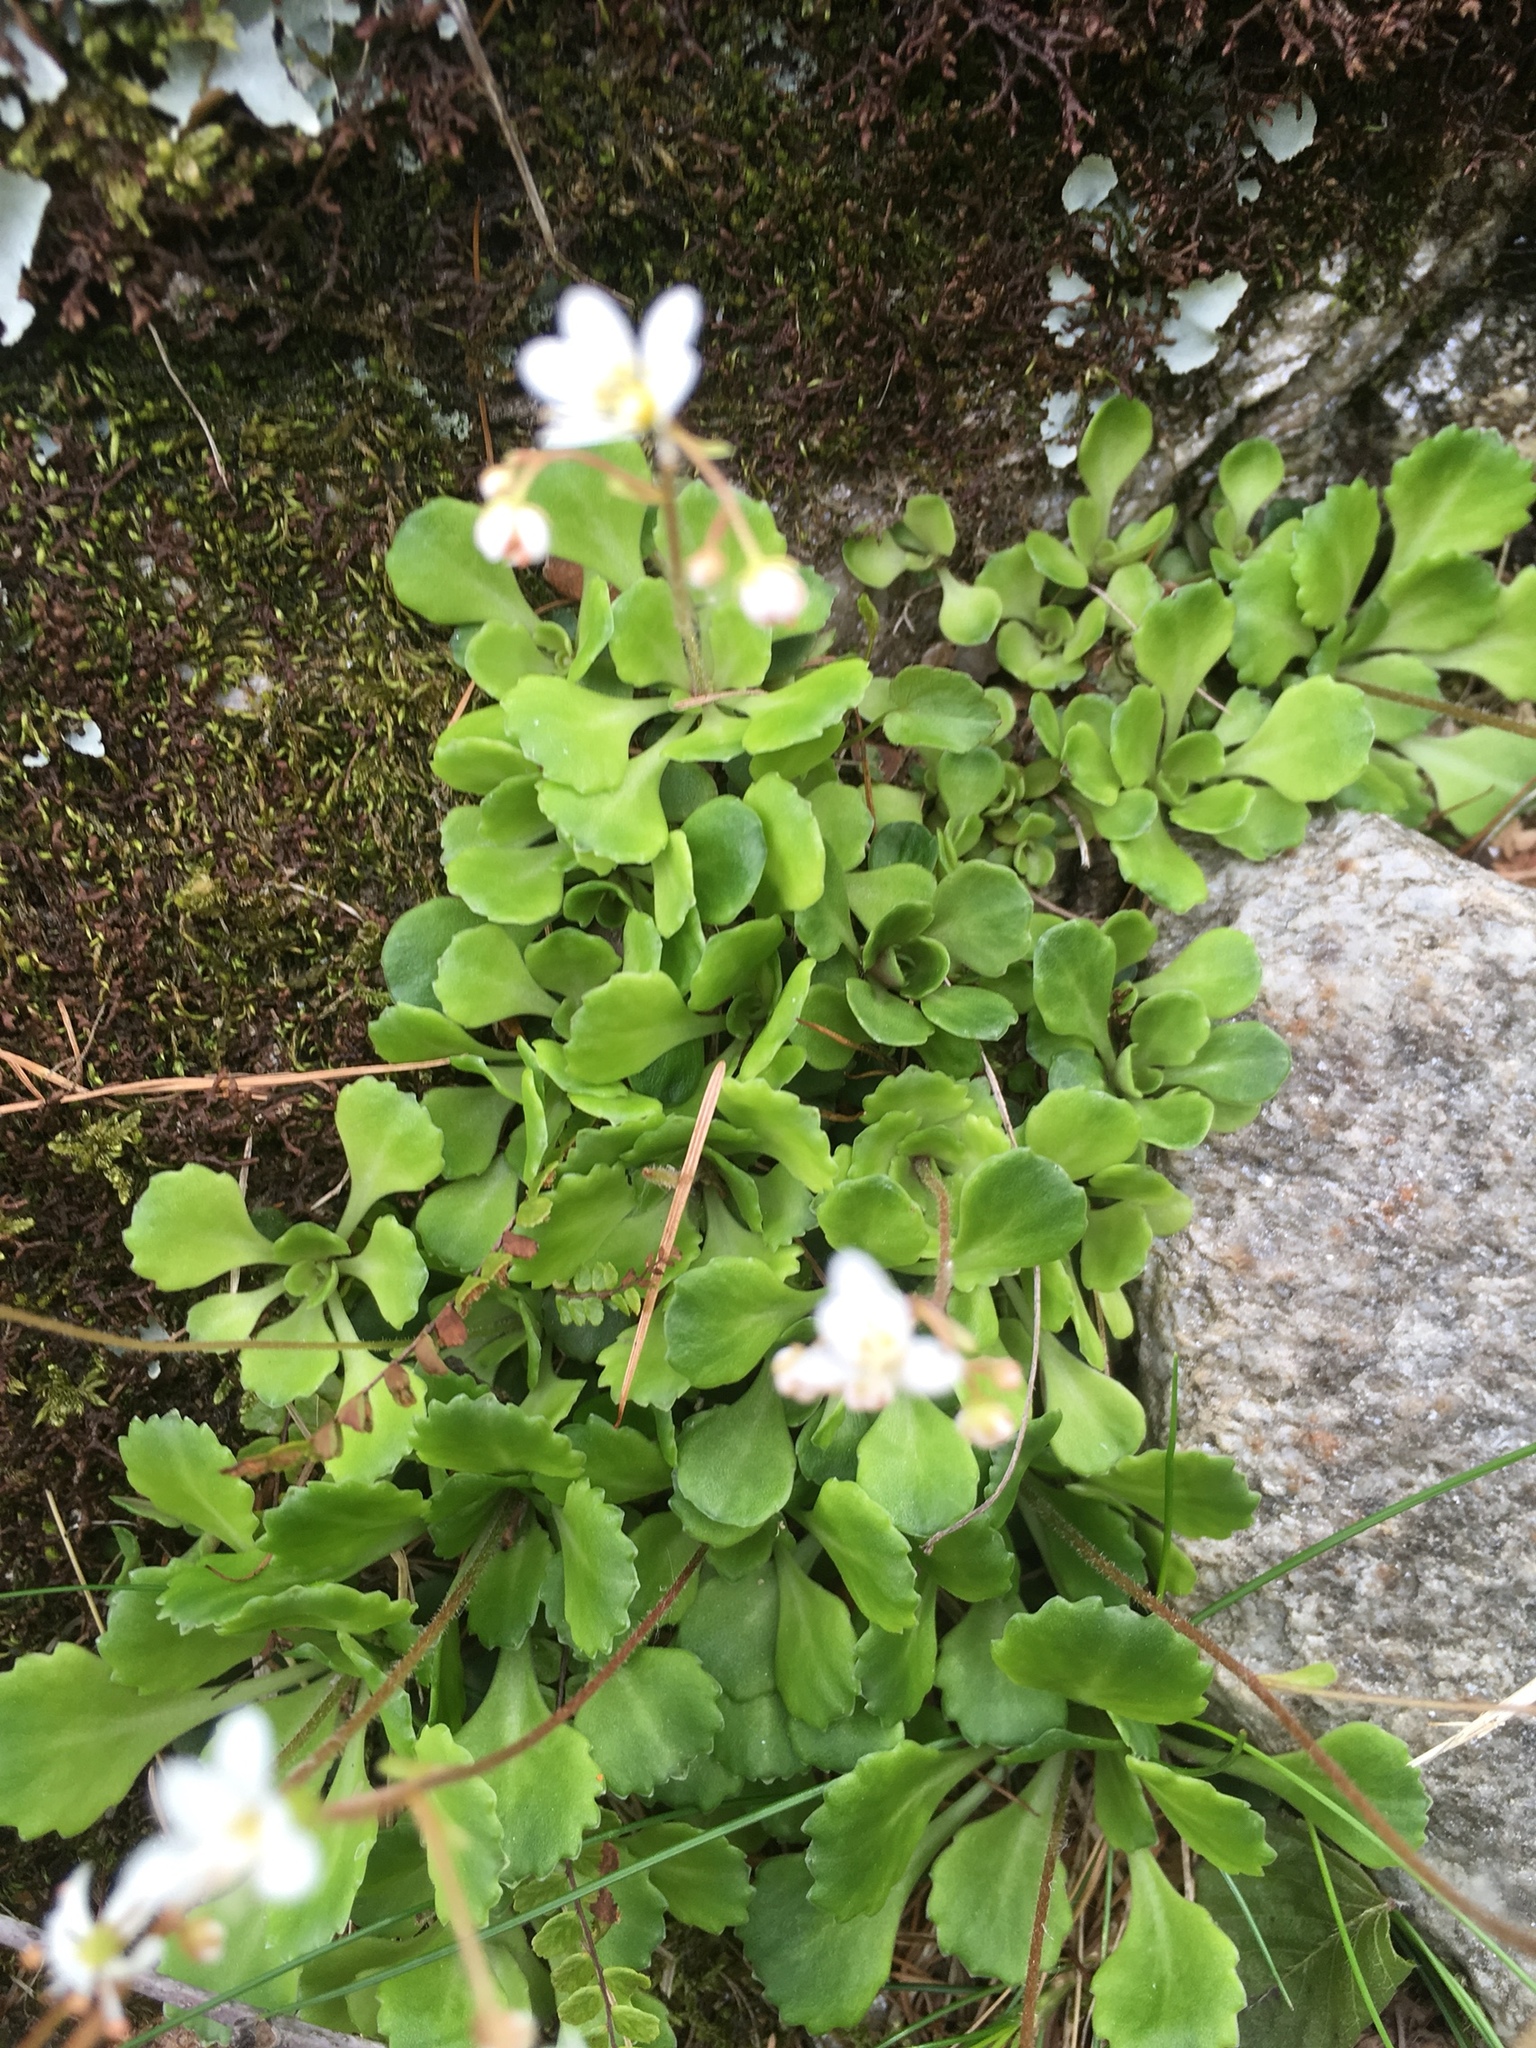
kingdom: Plantae
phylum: Tracheophyta
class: Magnoliopsida
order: Saxifragales
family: Saxifragaceae
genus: Saxifraga
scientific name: Saxifraga cuneifolia
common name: Lesser londonpride
